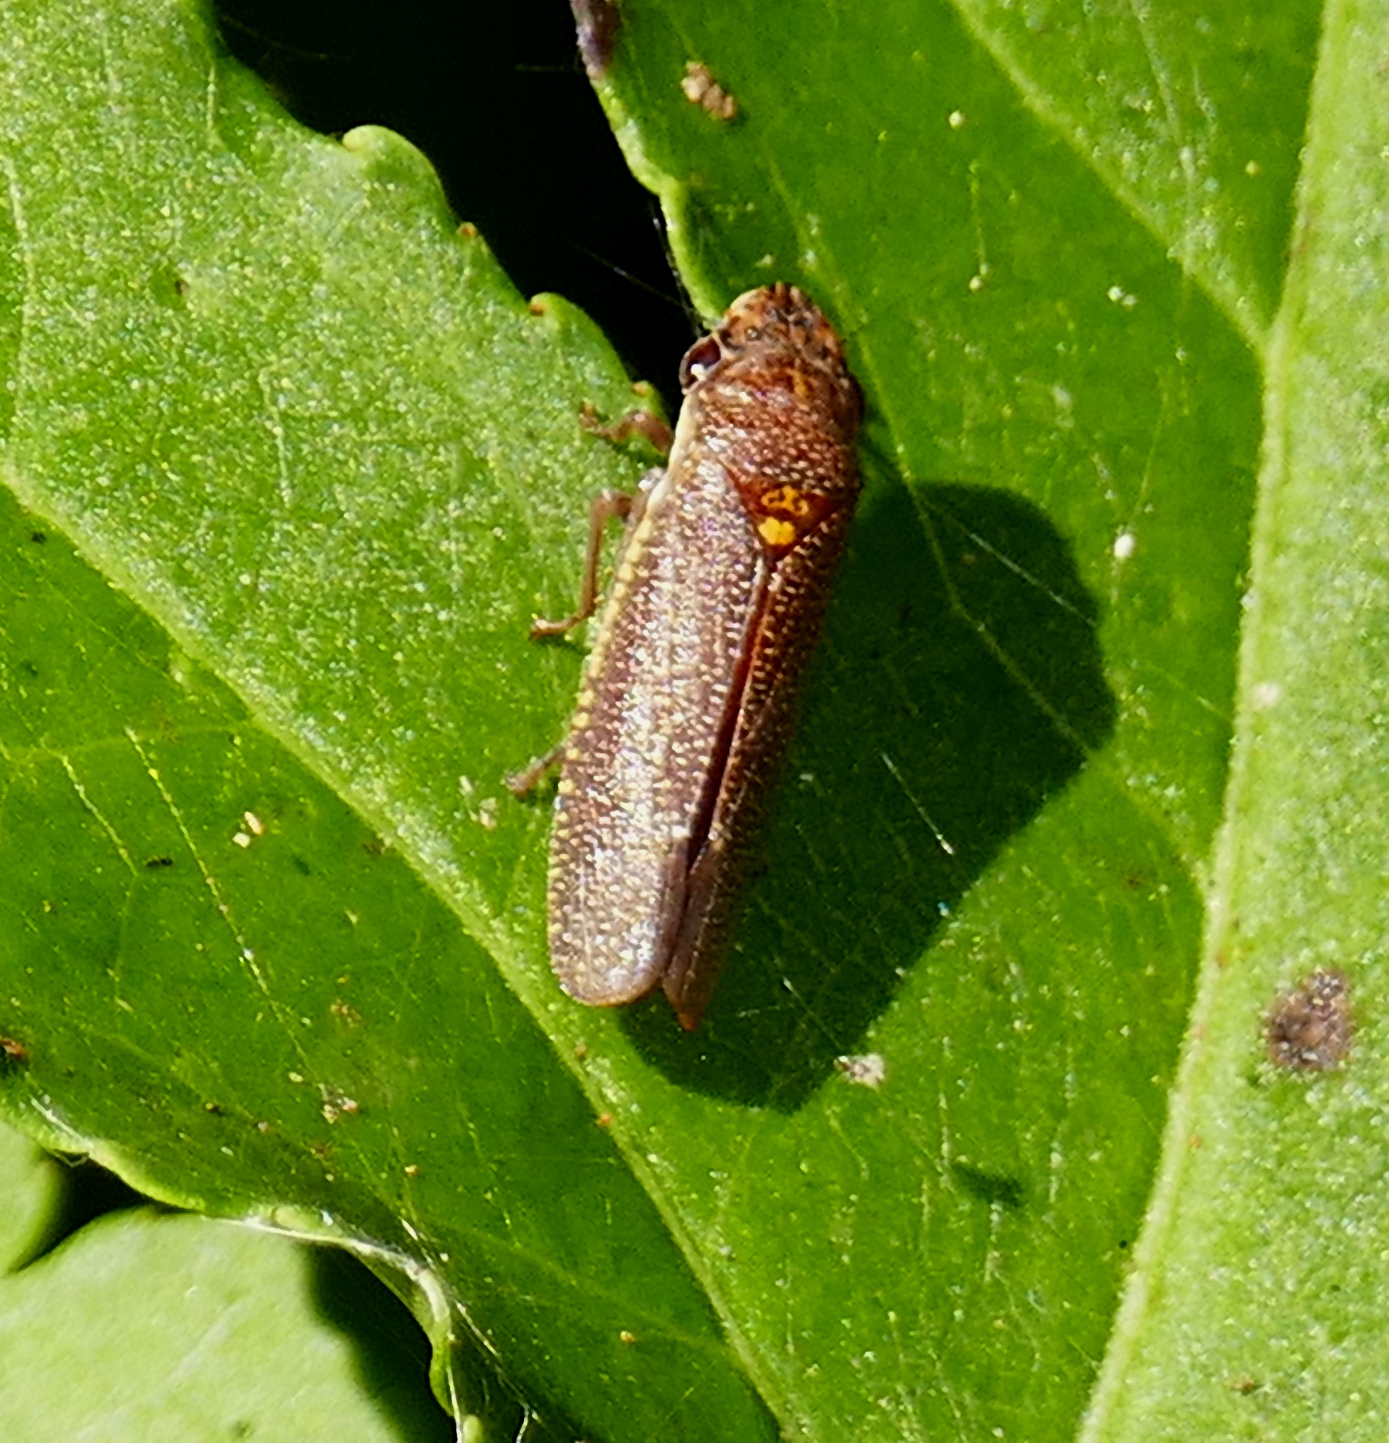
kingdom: Animalia
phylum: Arthropoda
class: Insecta
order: Hemiptera
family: Cicadellidae
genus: Paraulacizes
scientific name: Paraulacizes irrorata
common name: Speckled sharpshooter
